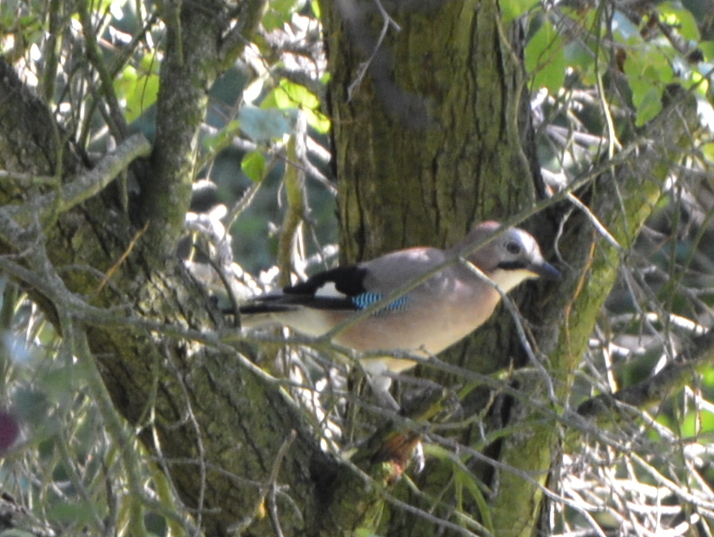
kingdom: Animalia
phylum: Chordata
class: Aves
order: Passeriformes
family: Corvidae
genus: Garrulus
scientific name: Garrulus glandarius
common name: Eurasian jay
